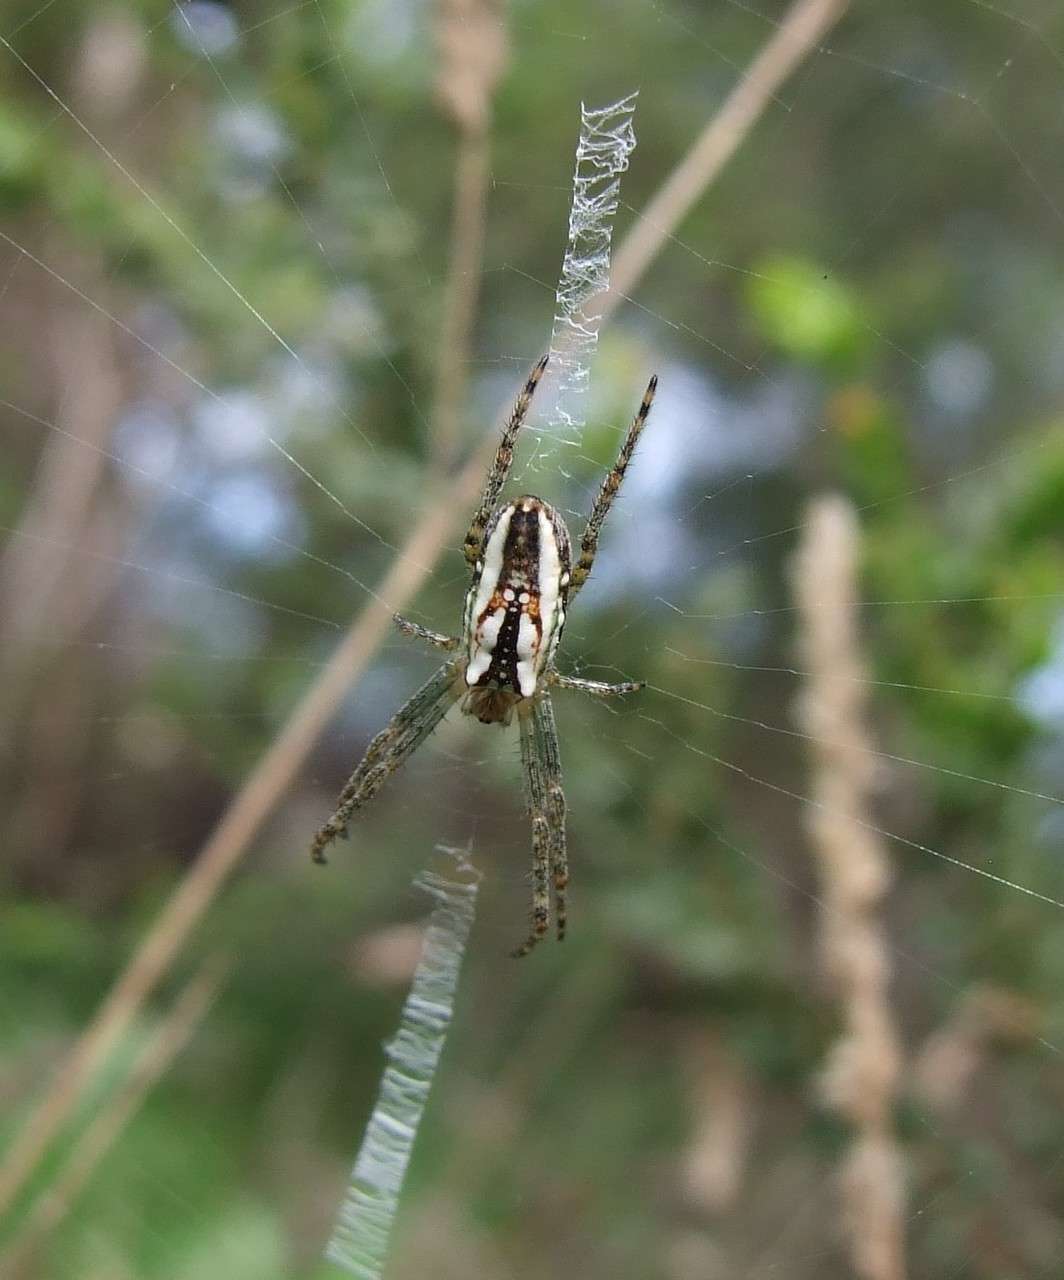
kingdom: Animalia
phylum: Arthropoda
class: Arachnida
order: Araneae
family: Araneidae
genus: Plebs
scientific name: Plebs bradleyi
